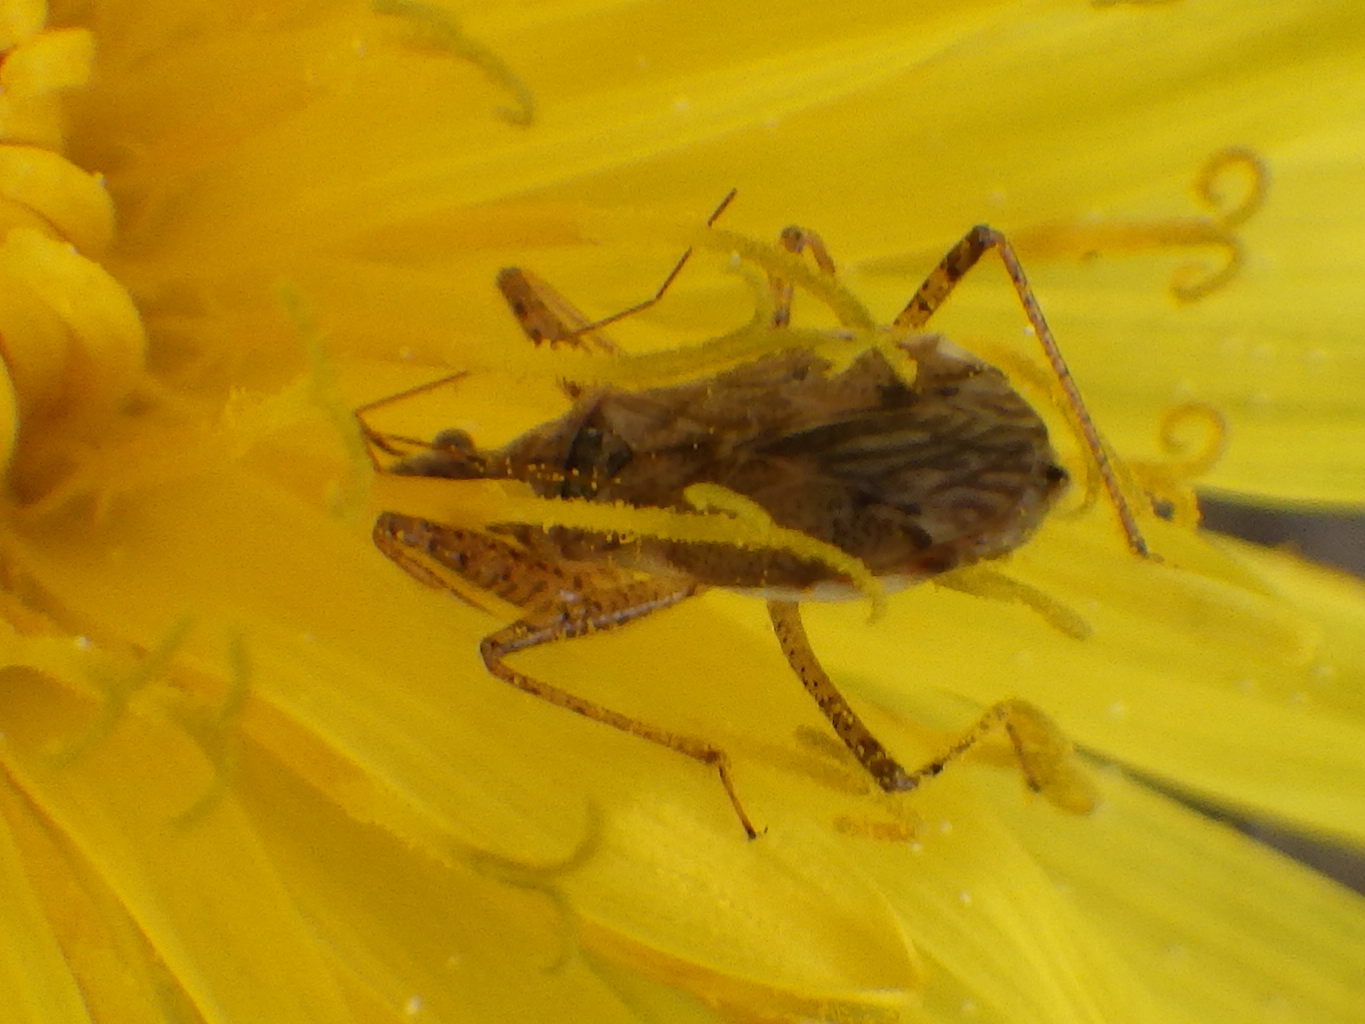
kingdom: Animalia
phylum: Arthropoda
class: Insecta
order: Hemiptera
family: Nabidae
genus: Nabis
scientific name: Nabis roseipennis
